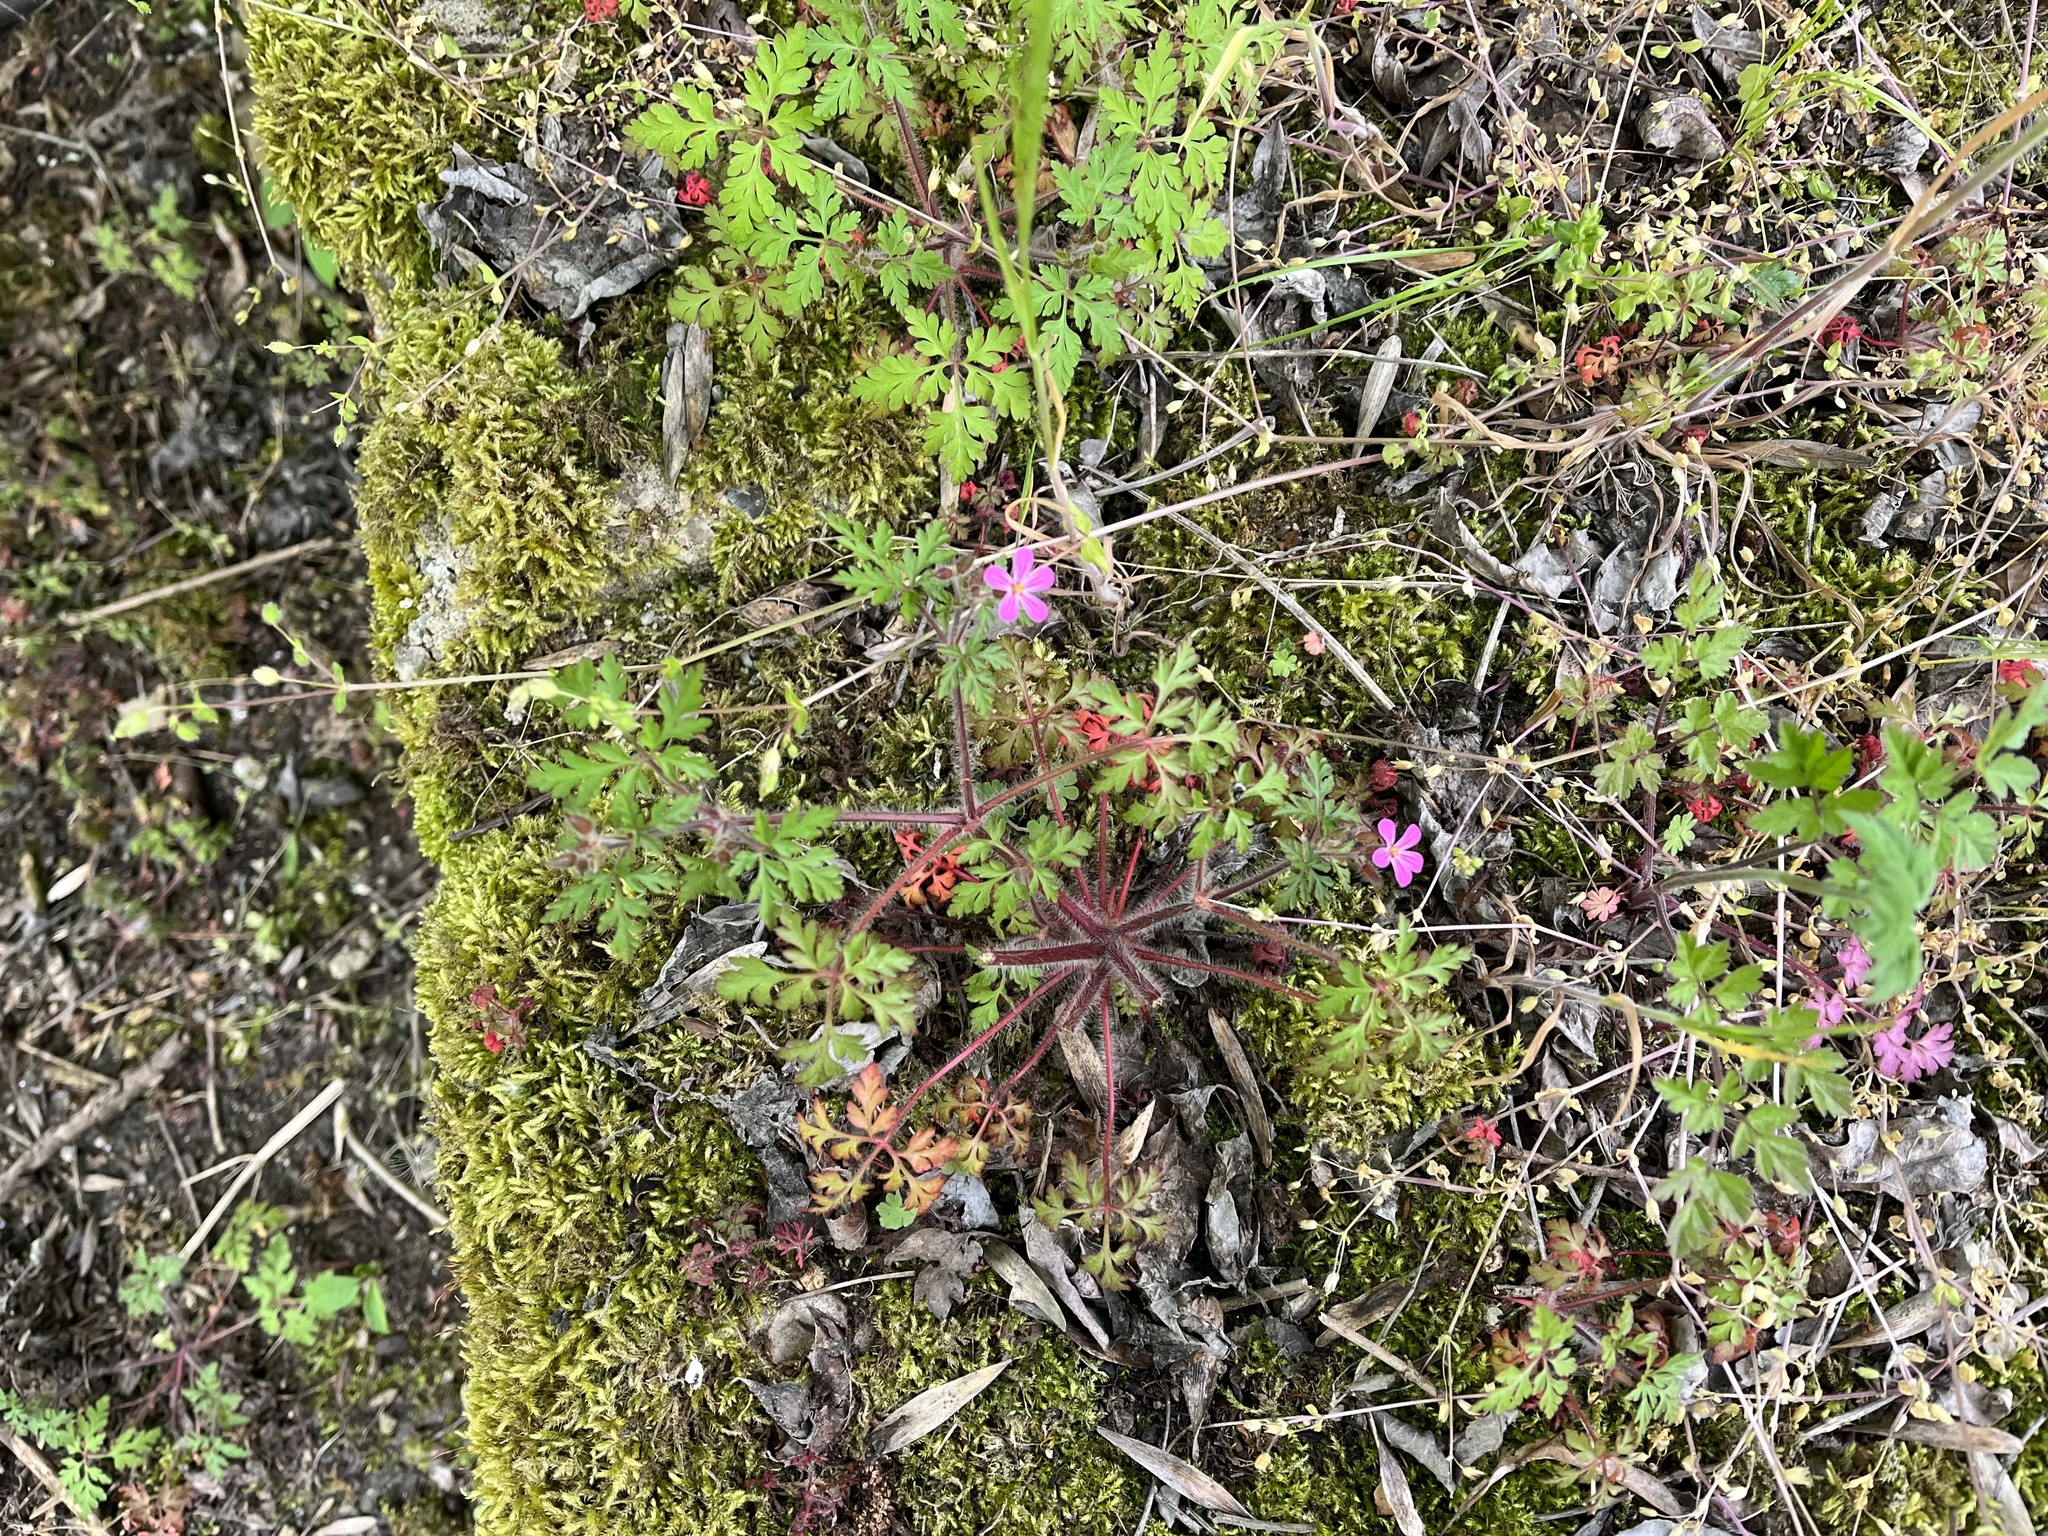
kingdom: Plantae
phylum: Tracheophyta
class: Magnoliopsida
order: Geraniales
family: Geraniaceae
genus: Geranium
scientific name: Geranium robertianum
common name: Herb-robert
